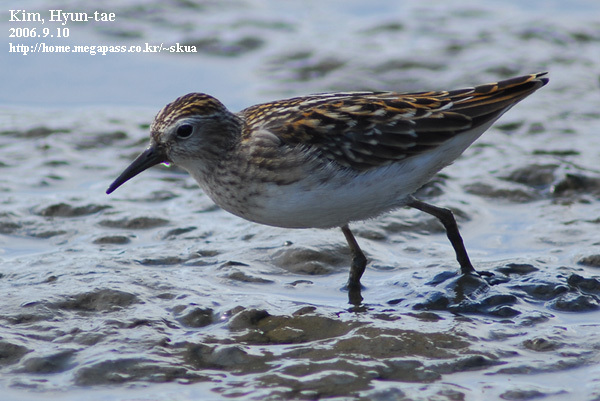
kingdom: Animalia
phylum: Chordata
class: Aves
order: Charadriiformes
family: Scolopacidae
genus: Calidris
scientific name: Calidris subminuta
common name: Long-toed stint
